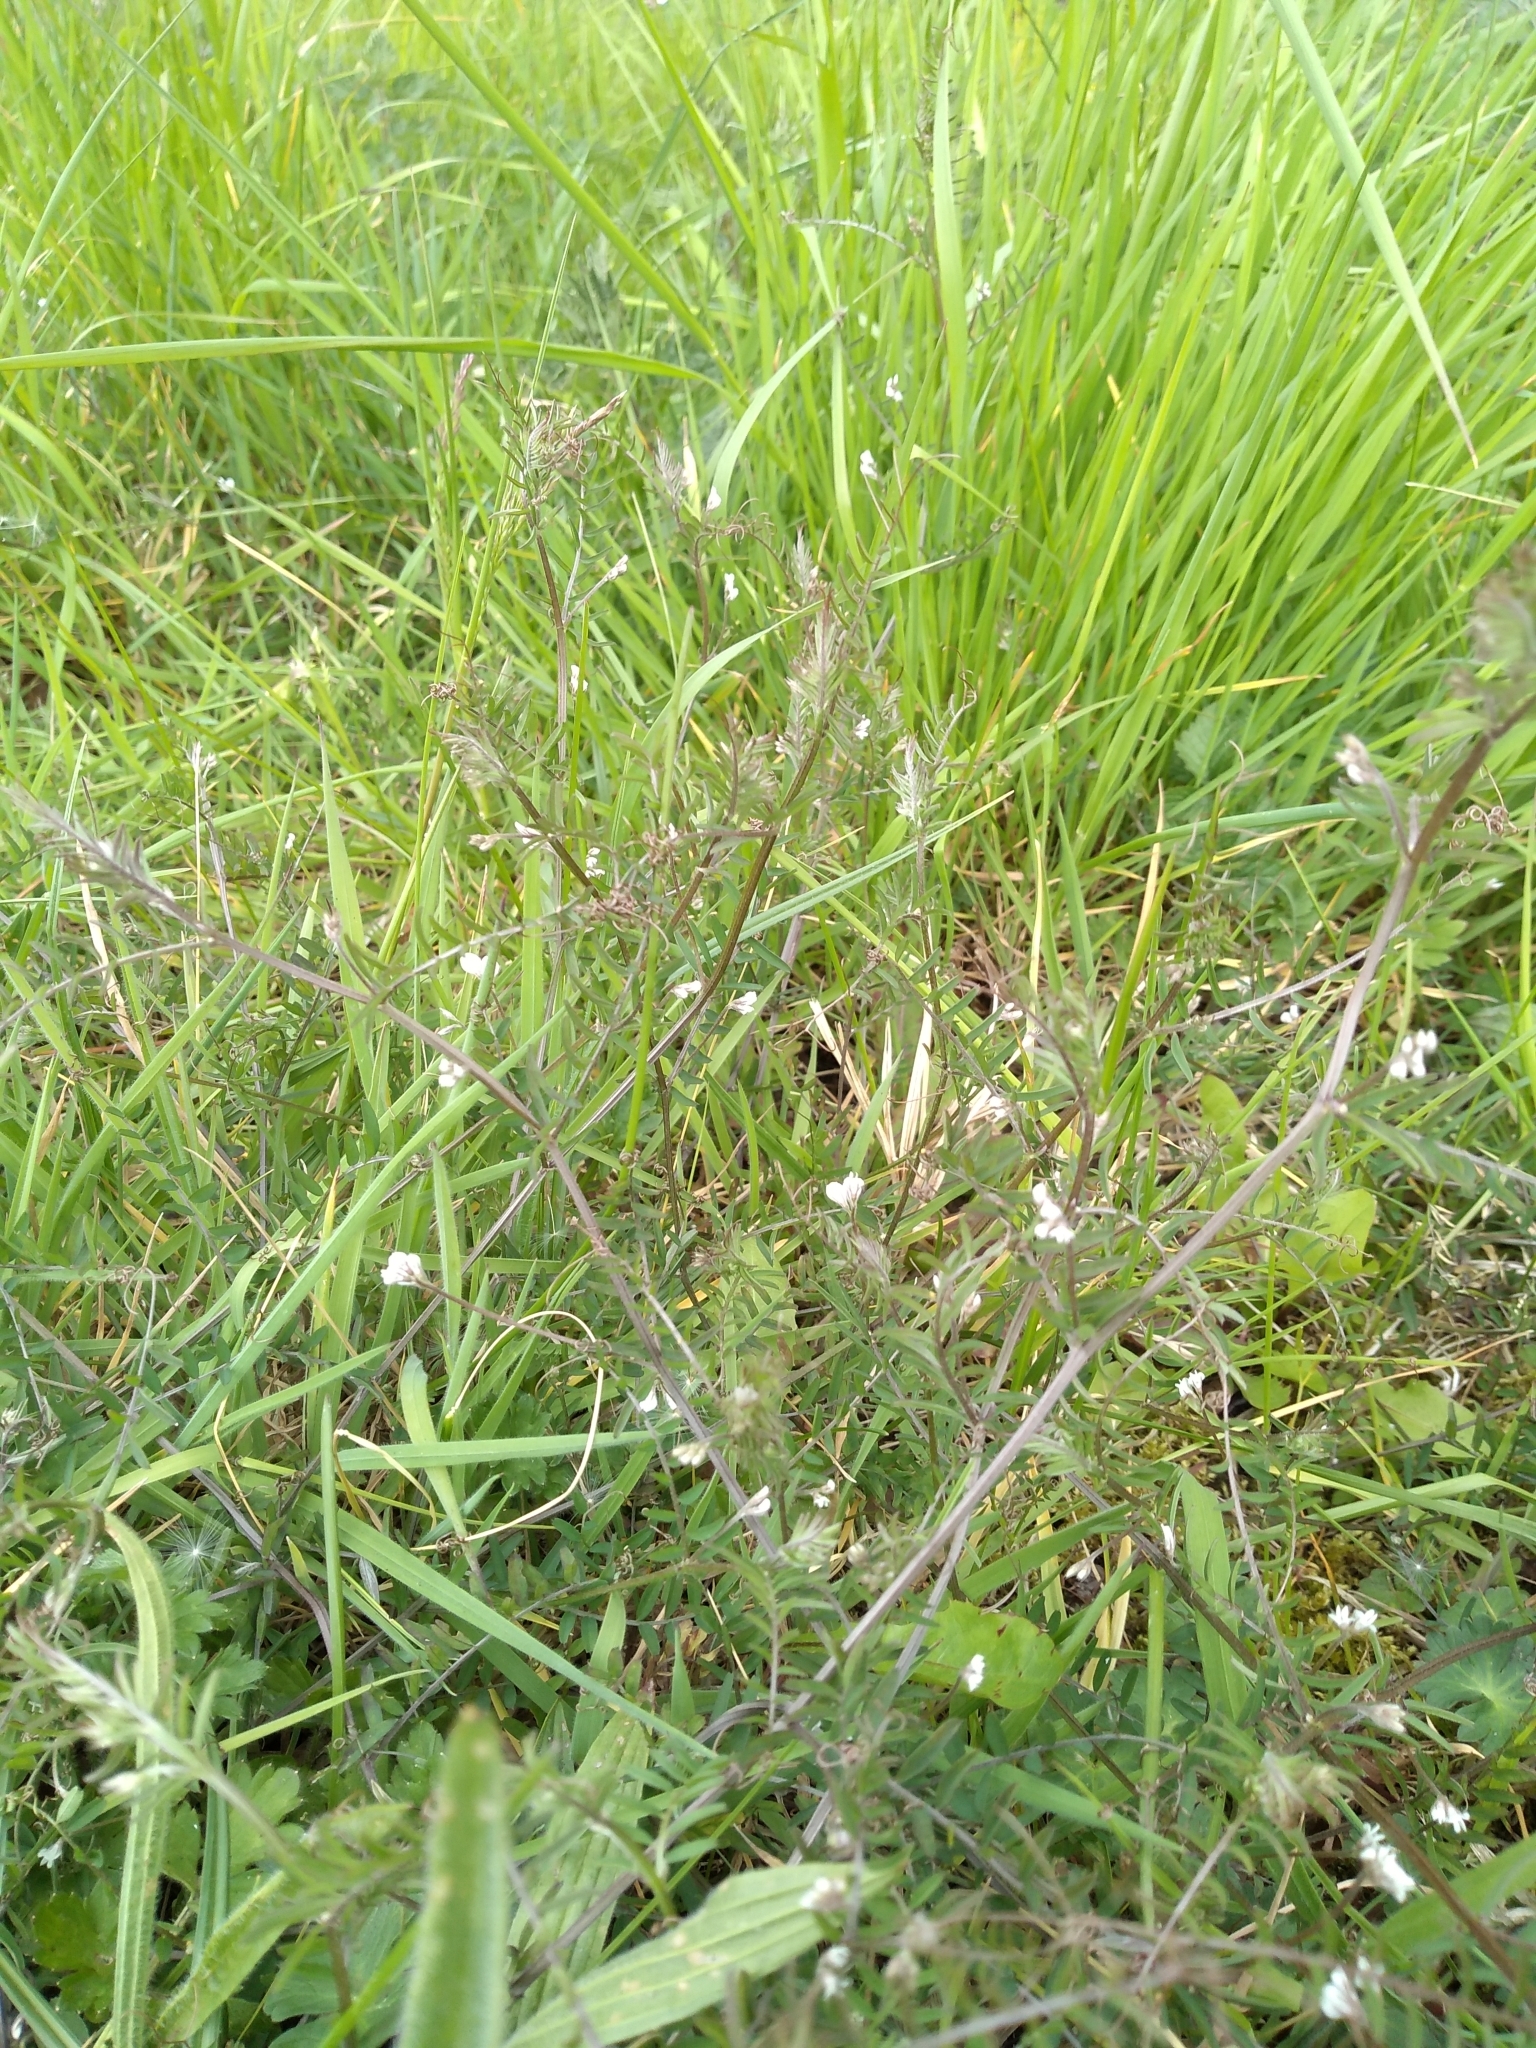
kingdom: Plantae
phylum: Tracheophyta
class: Magnoliopsida
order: Fabales
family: Fabaceae
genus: Vicia
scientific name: Vicia hirsuta
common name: Tiny vetch
